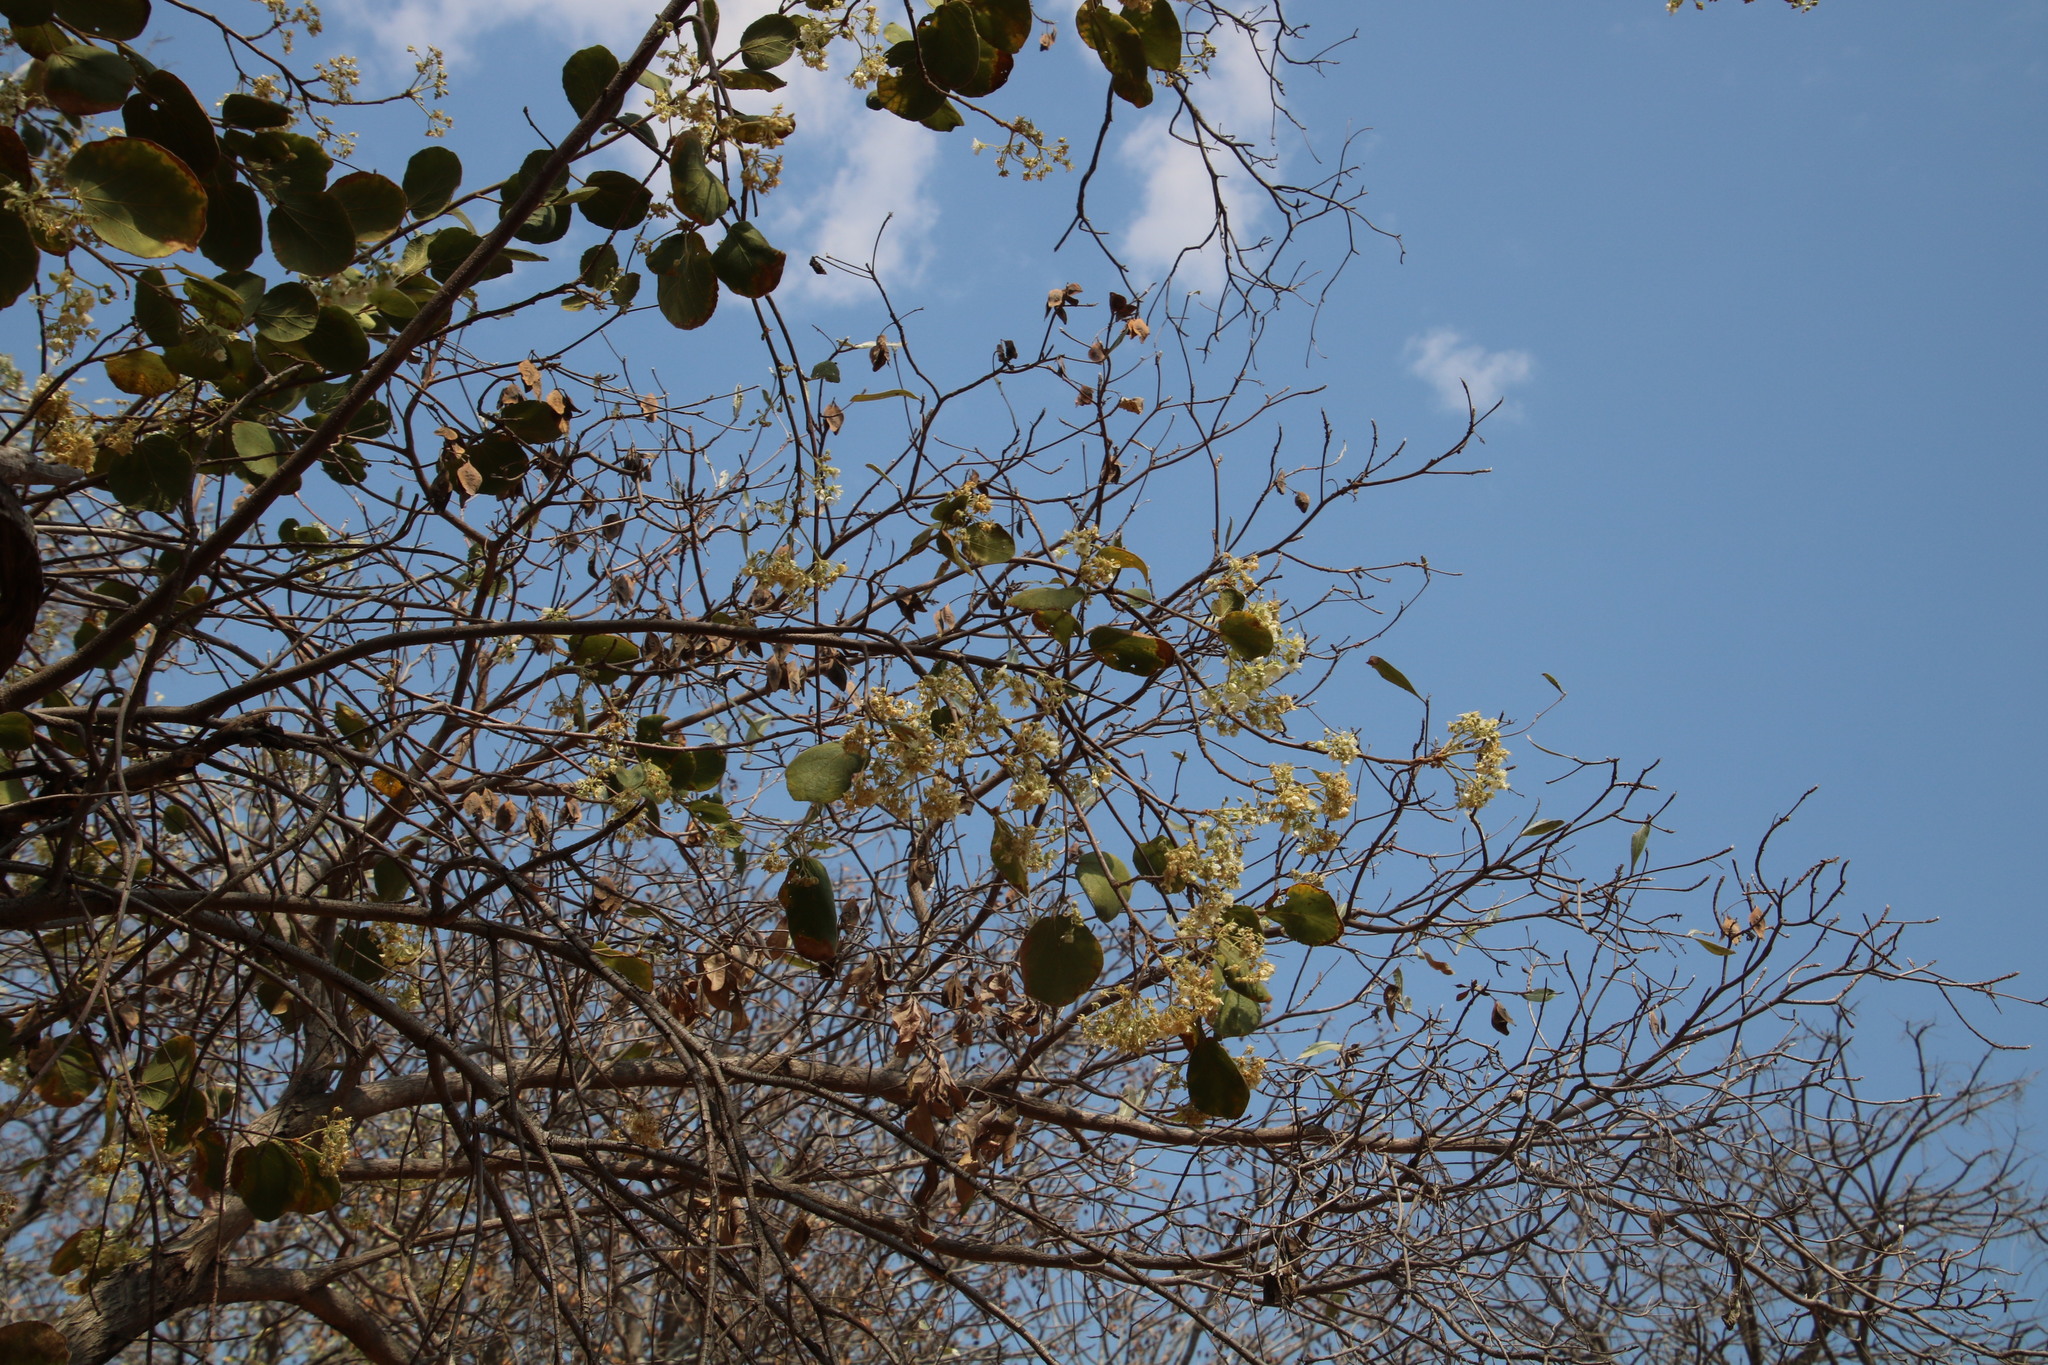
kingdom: Plantae
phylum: Tracheophyta
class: Magnoliopsida
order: Malvales
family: Malvaceae
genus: Dombeya
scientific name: Dombeya rotundifolia
